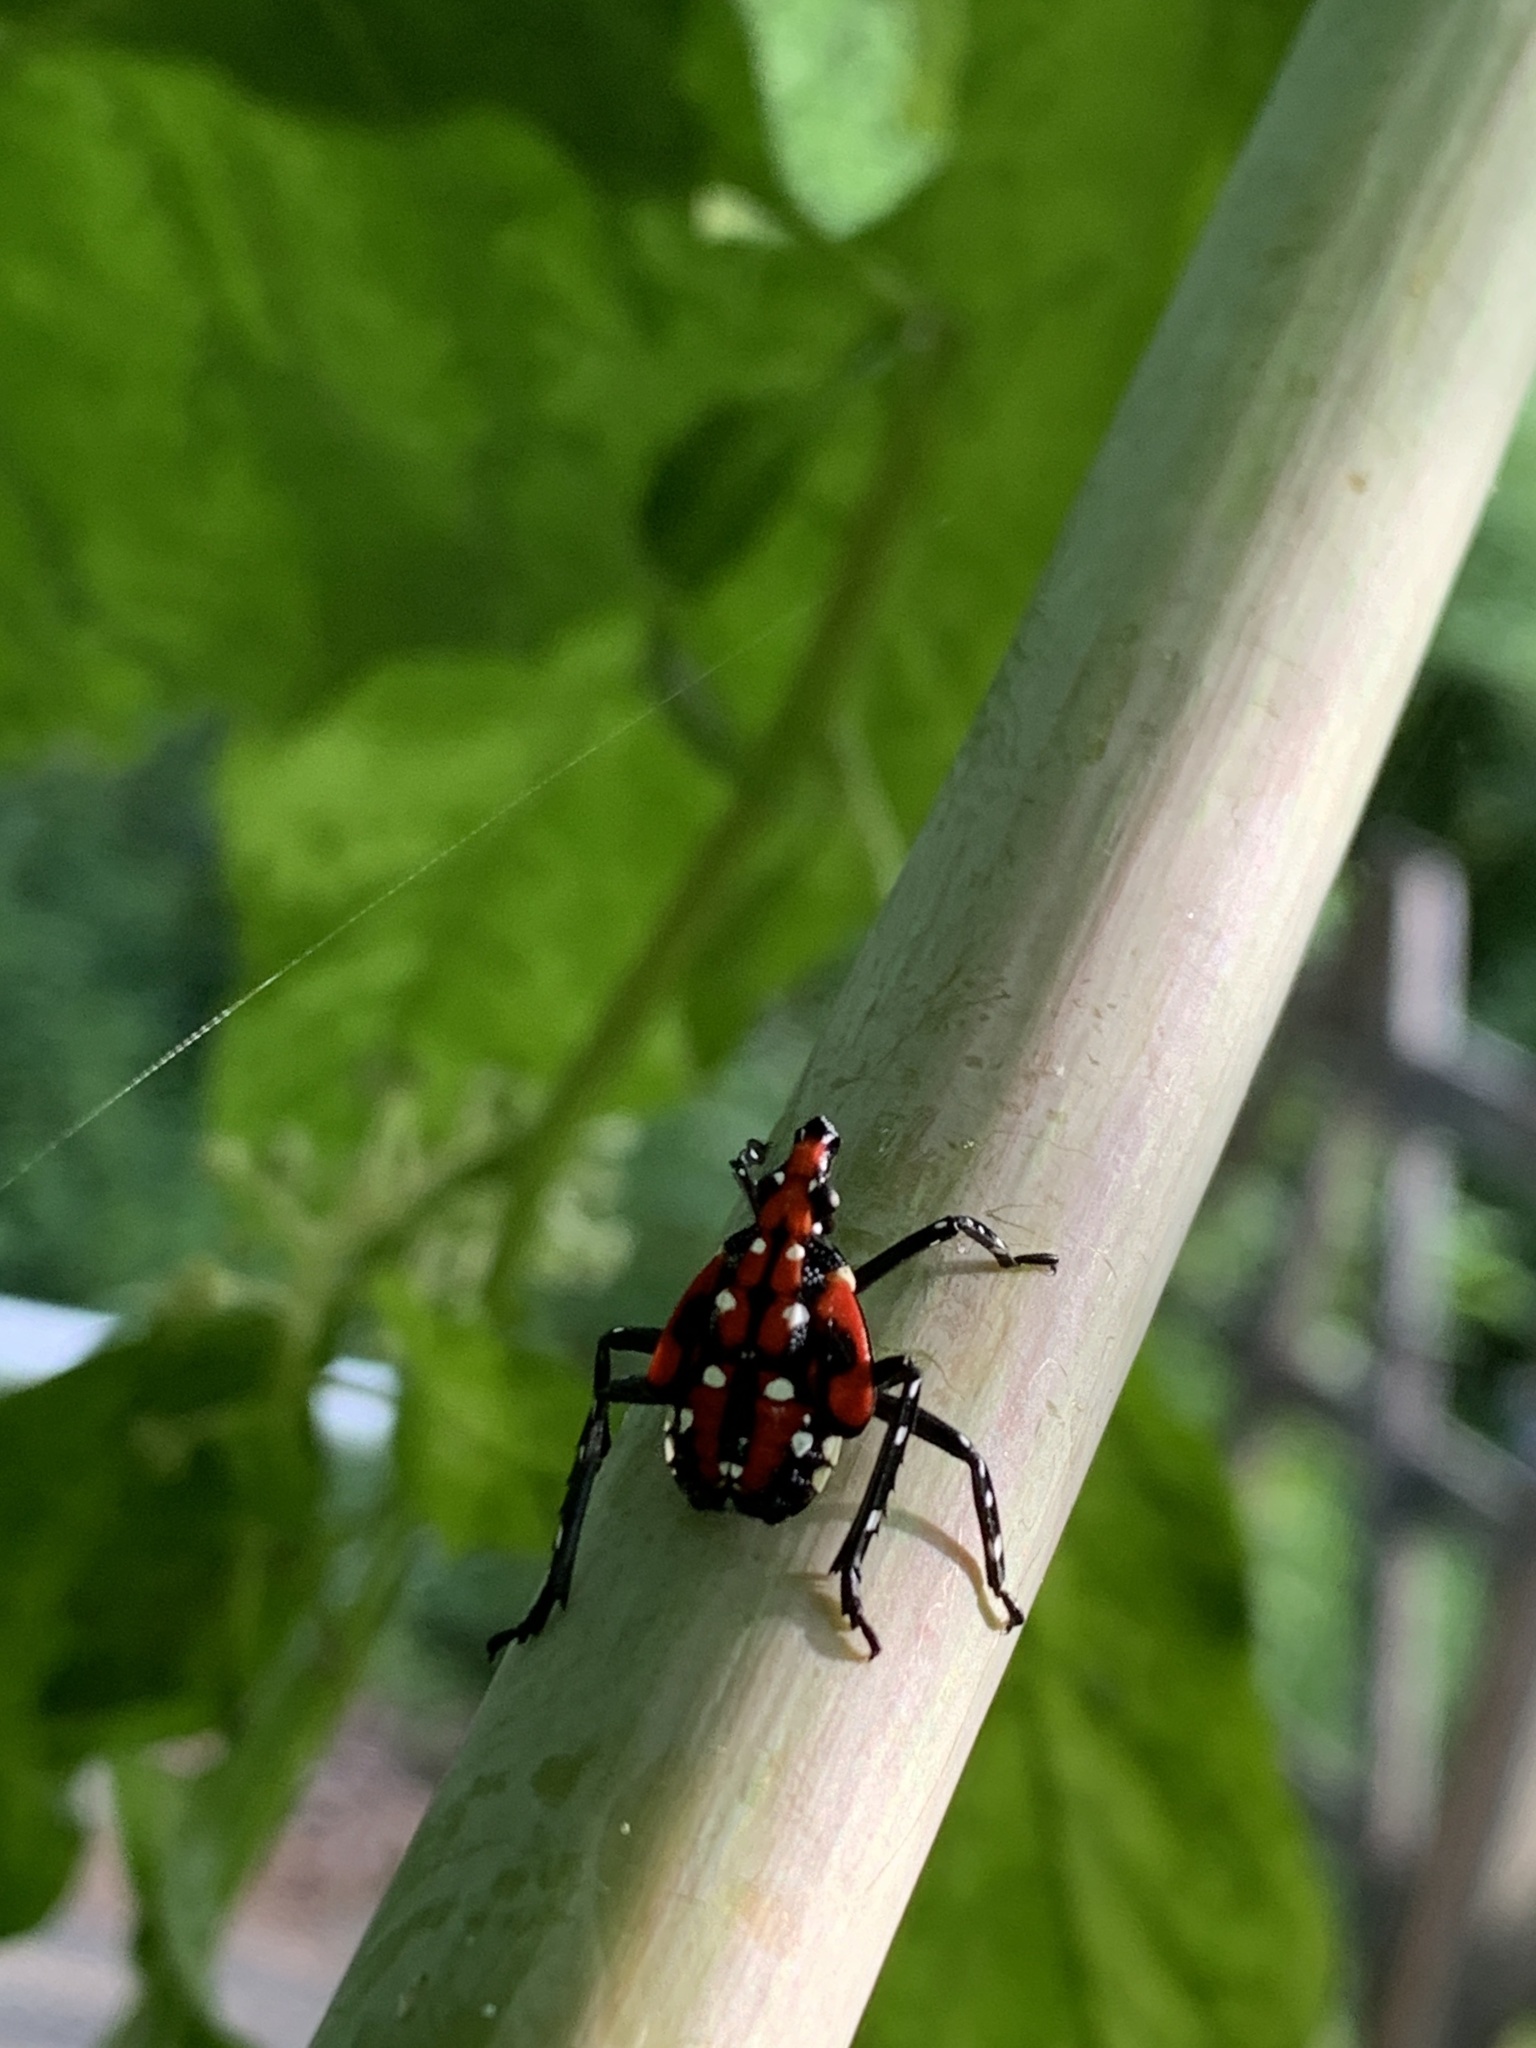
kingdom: Animalia
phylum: Arthropoda
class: Insecta
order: Hemiptera
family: Fulgoridae
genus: Lycorma
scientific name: Lycorma delicatula
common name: Spotted lanternfly
